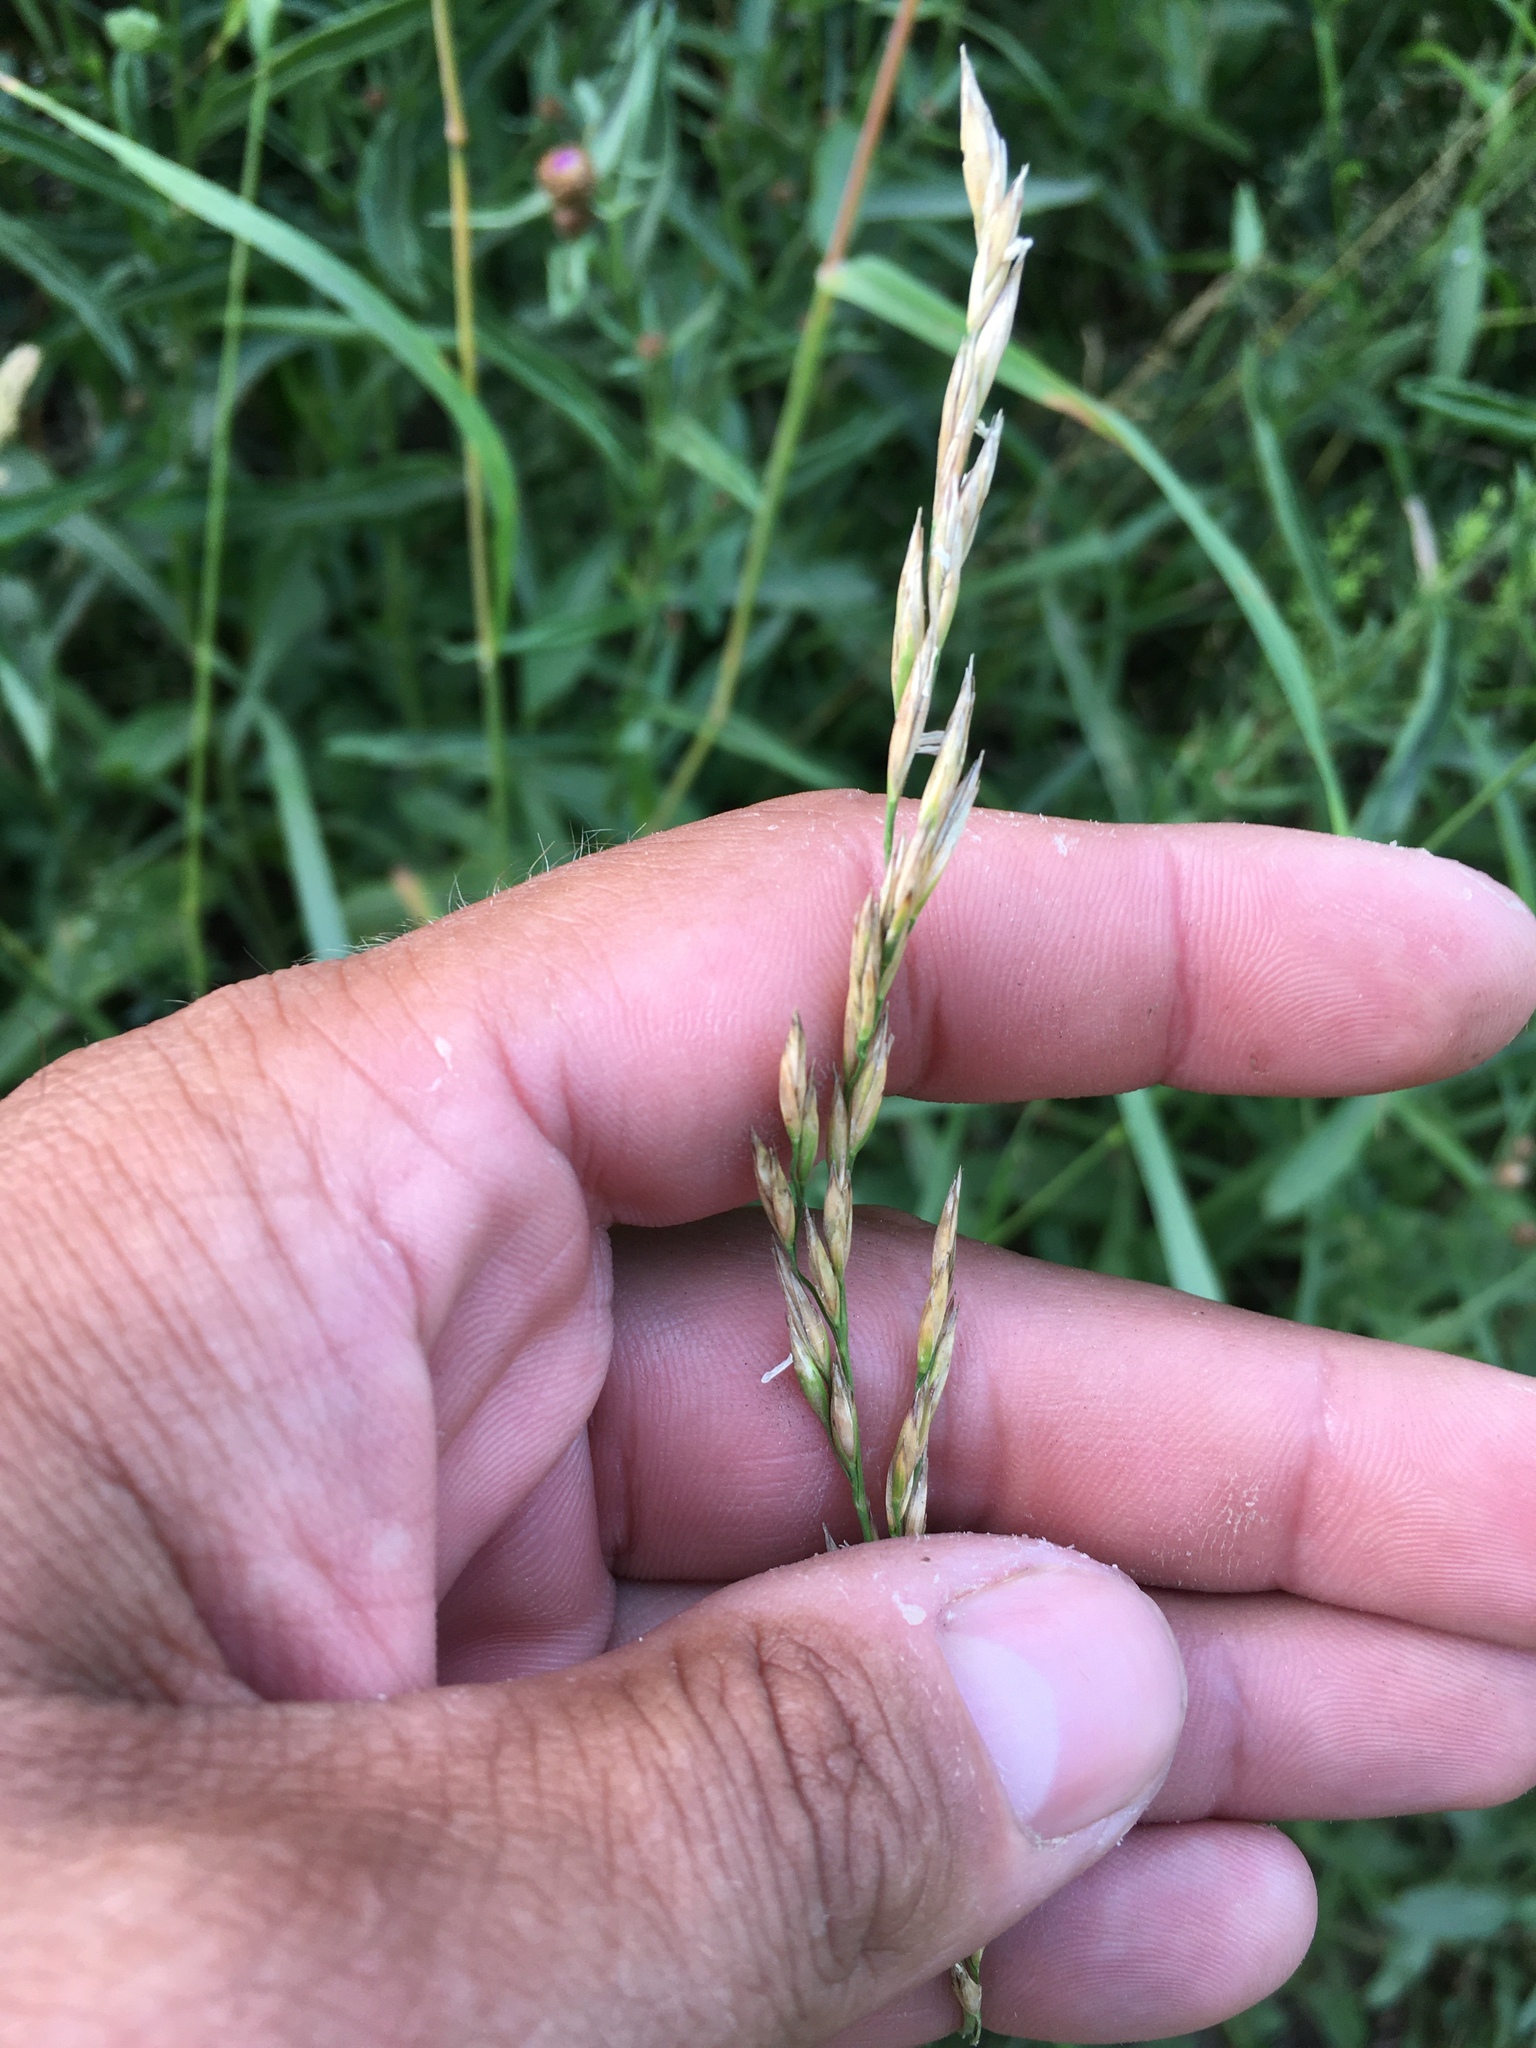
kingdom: Plantae
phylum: Tracheophyta
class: Liliopsida
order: Poales
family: Poaceae
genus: Lolium
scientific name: Lolium arundinaceum
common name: Reed fescue
